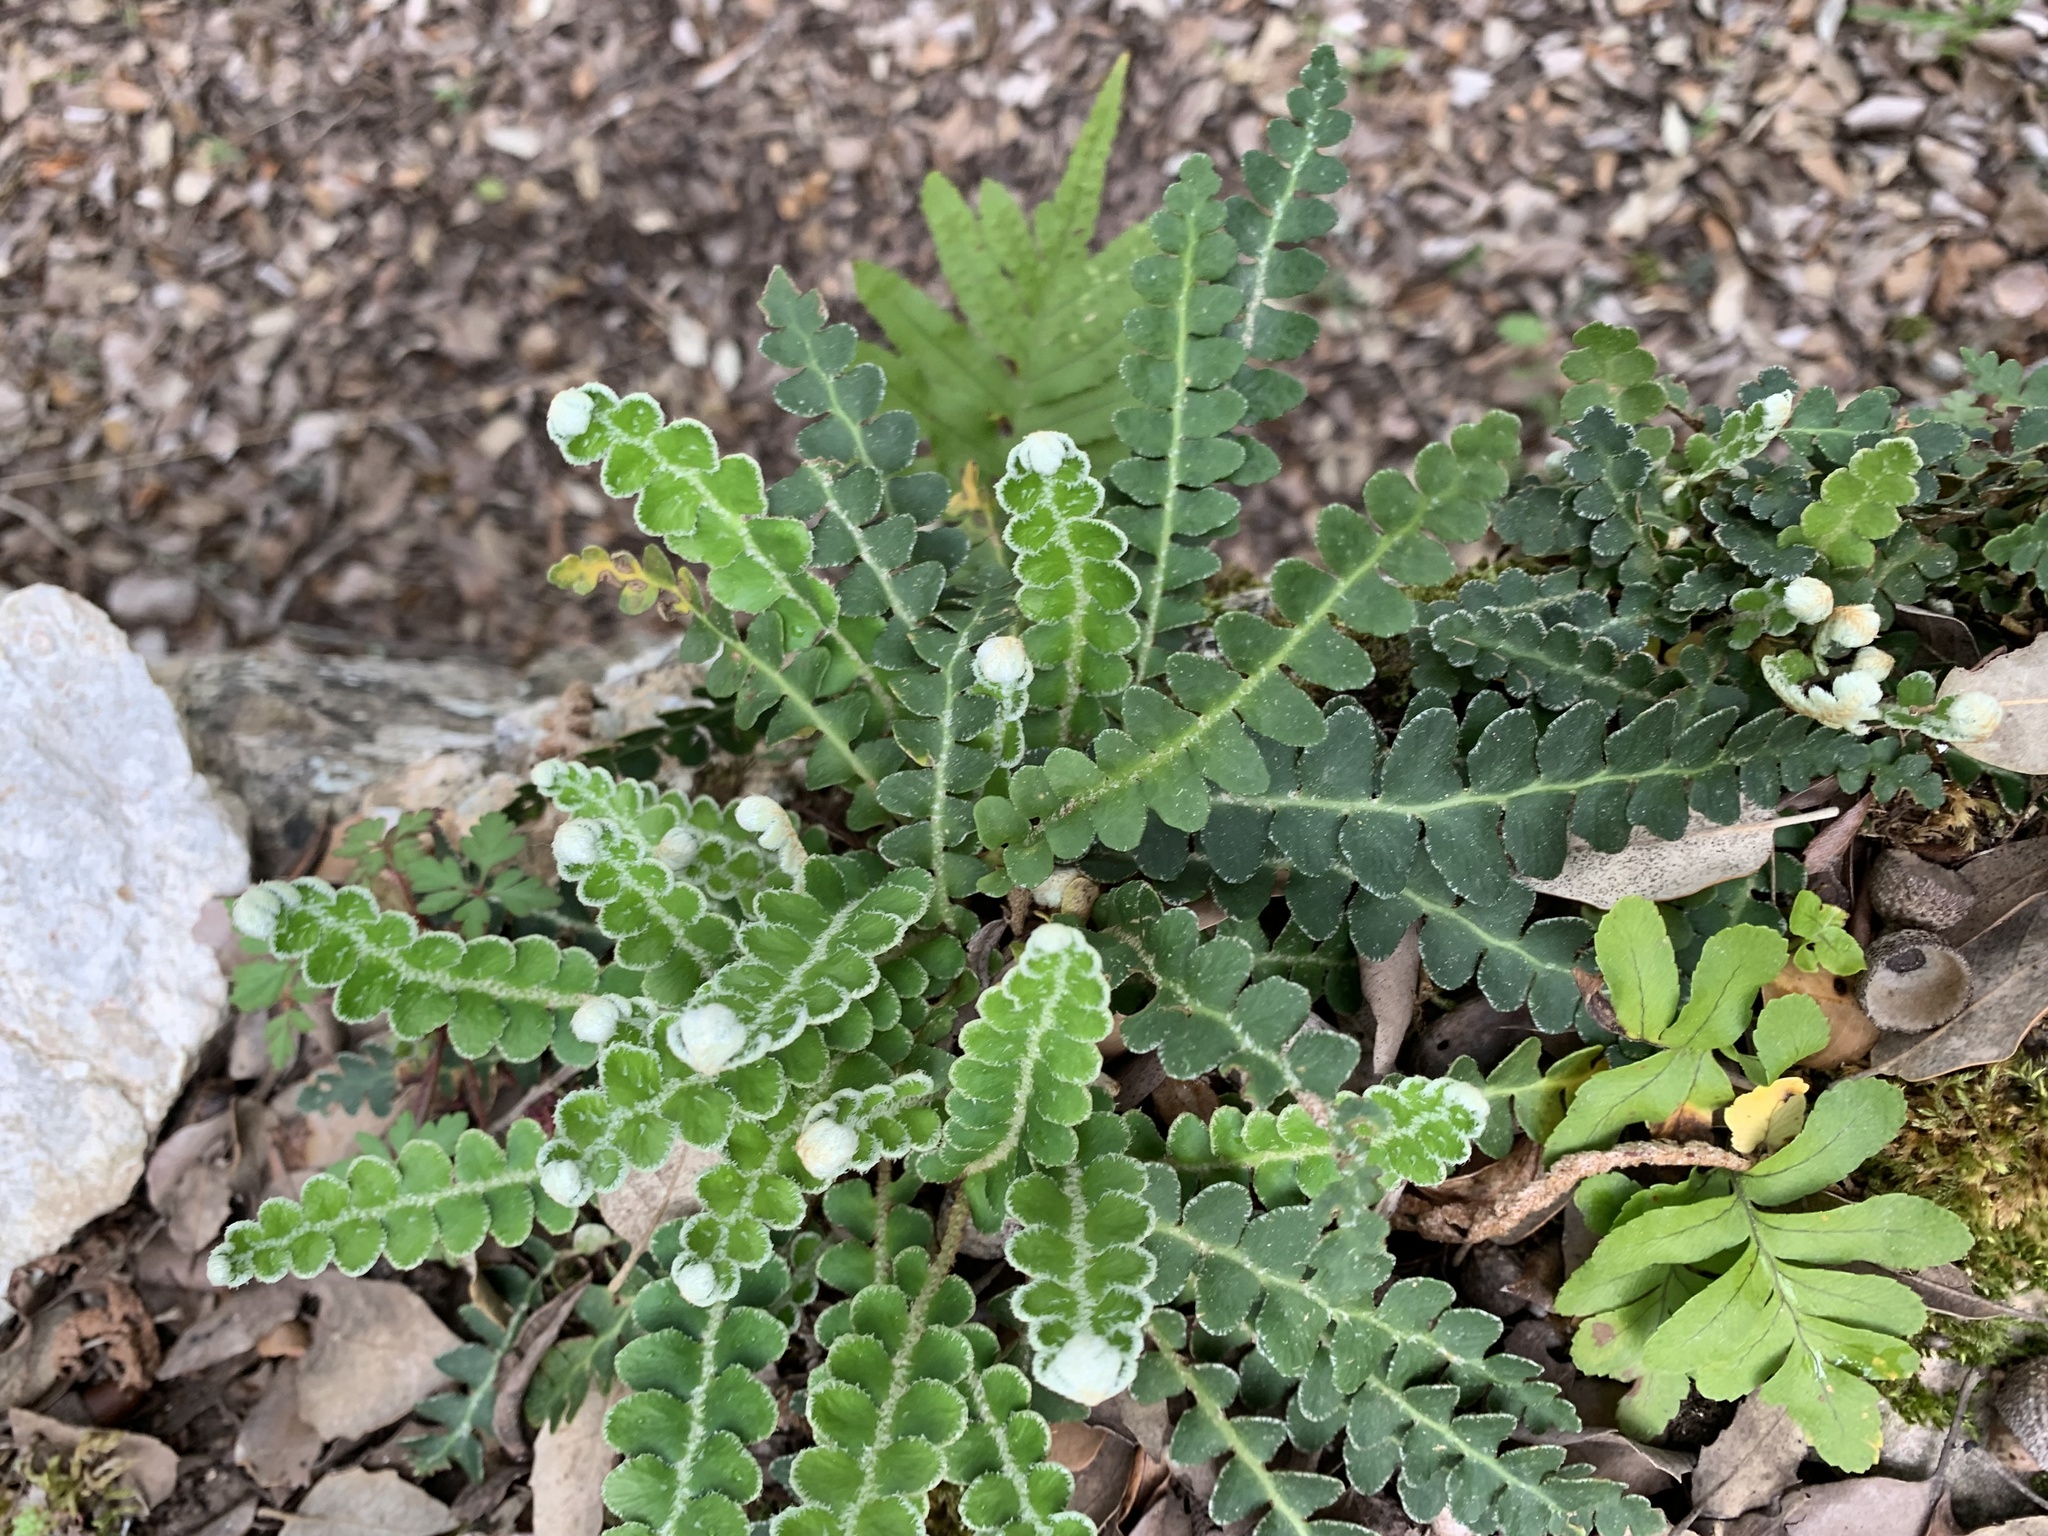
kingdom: Plantae
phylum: Tracheophyta
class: Polypodiopsida
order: Polypodiales
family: Aspleniaceae
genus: Asplenium
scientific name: Asplenium ceterach
